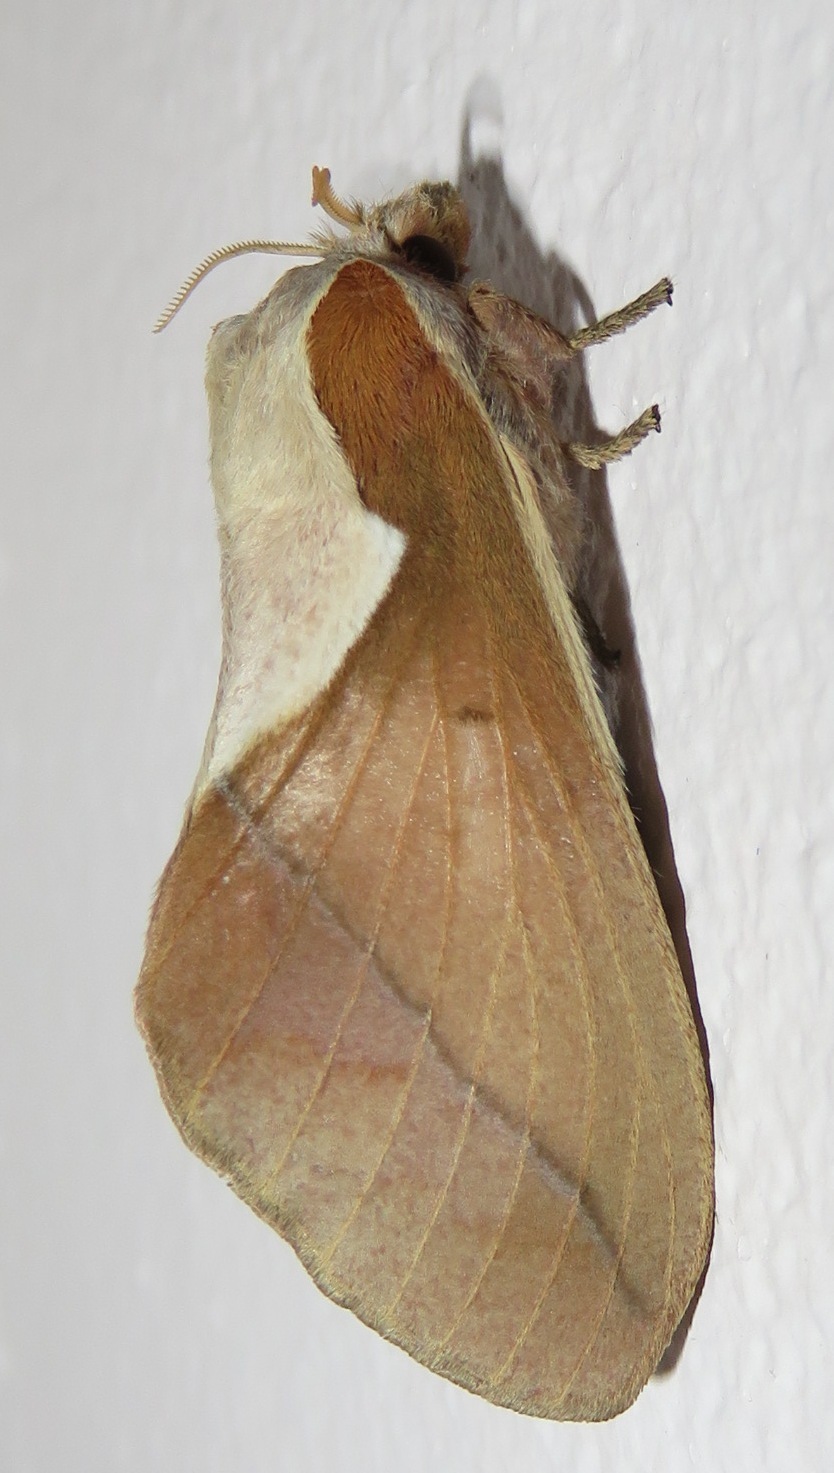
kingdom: Animalia
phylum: Arthropoda
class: Insecta
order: Lepidoptera
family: Lasiocampidae
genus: Stoermeriana
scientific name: Stoermeriana scapulosa
